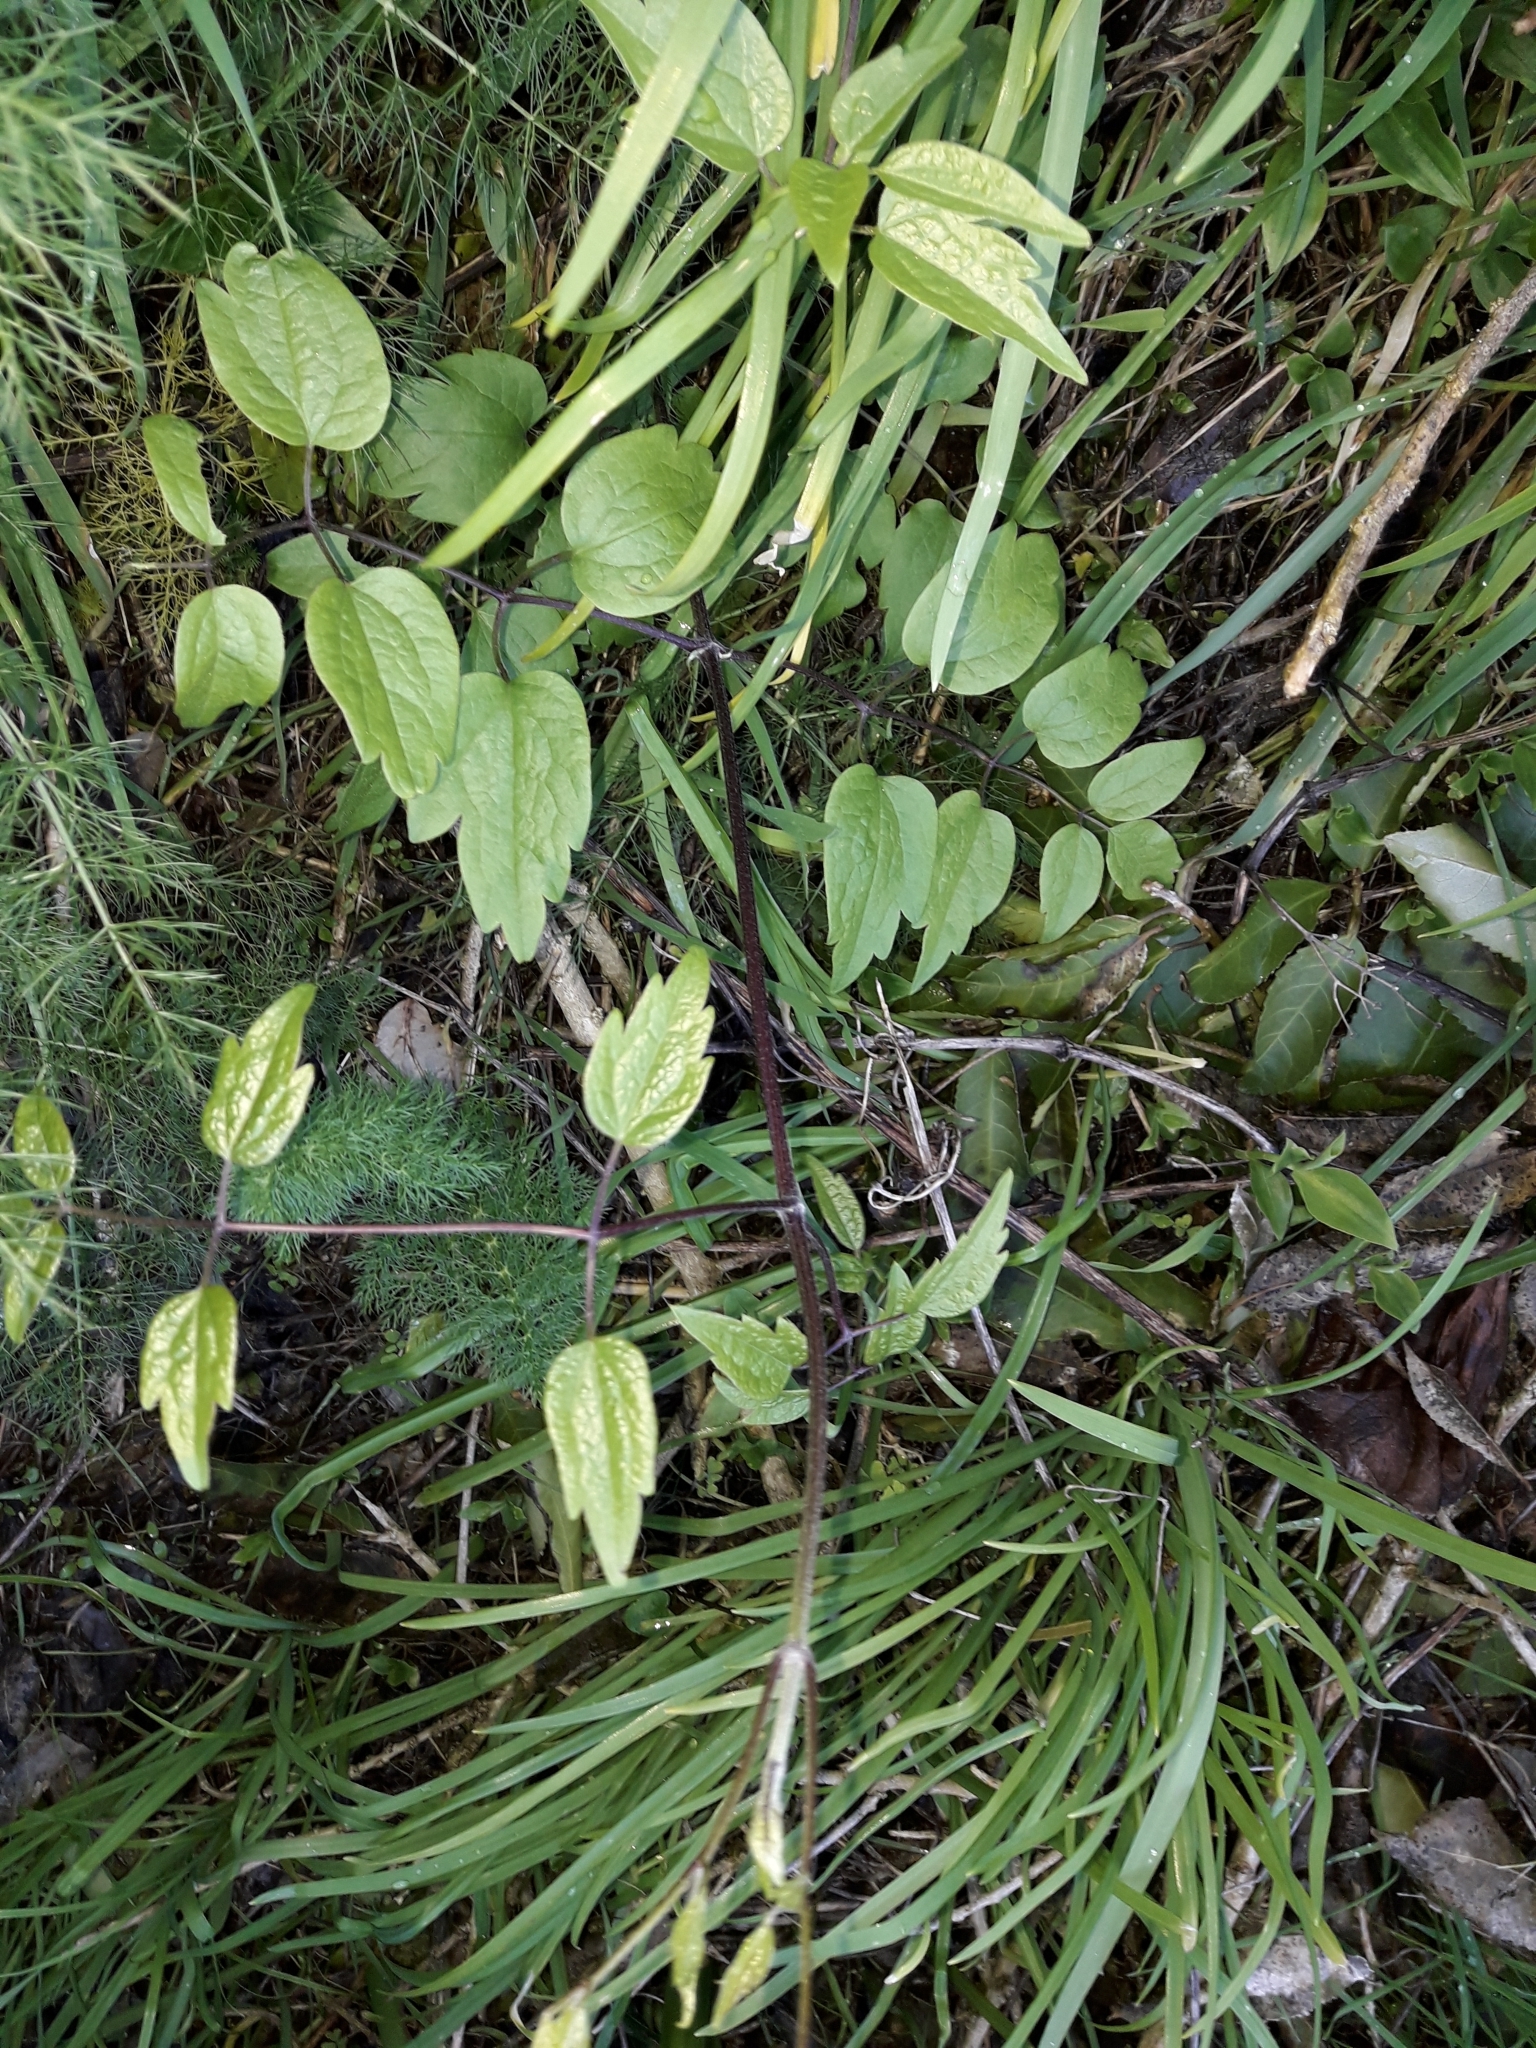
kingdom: Plantae
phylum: Tracheophyta
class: Magnoliopsida
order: Ranunculales
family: Ranunculaceae
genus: Clematis
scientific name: Clematis vitalba
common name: Evergreen clematis
